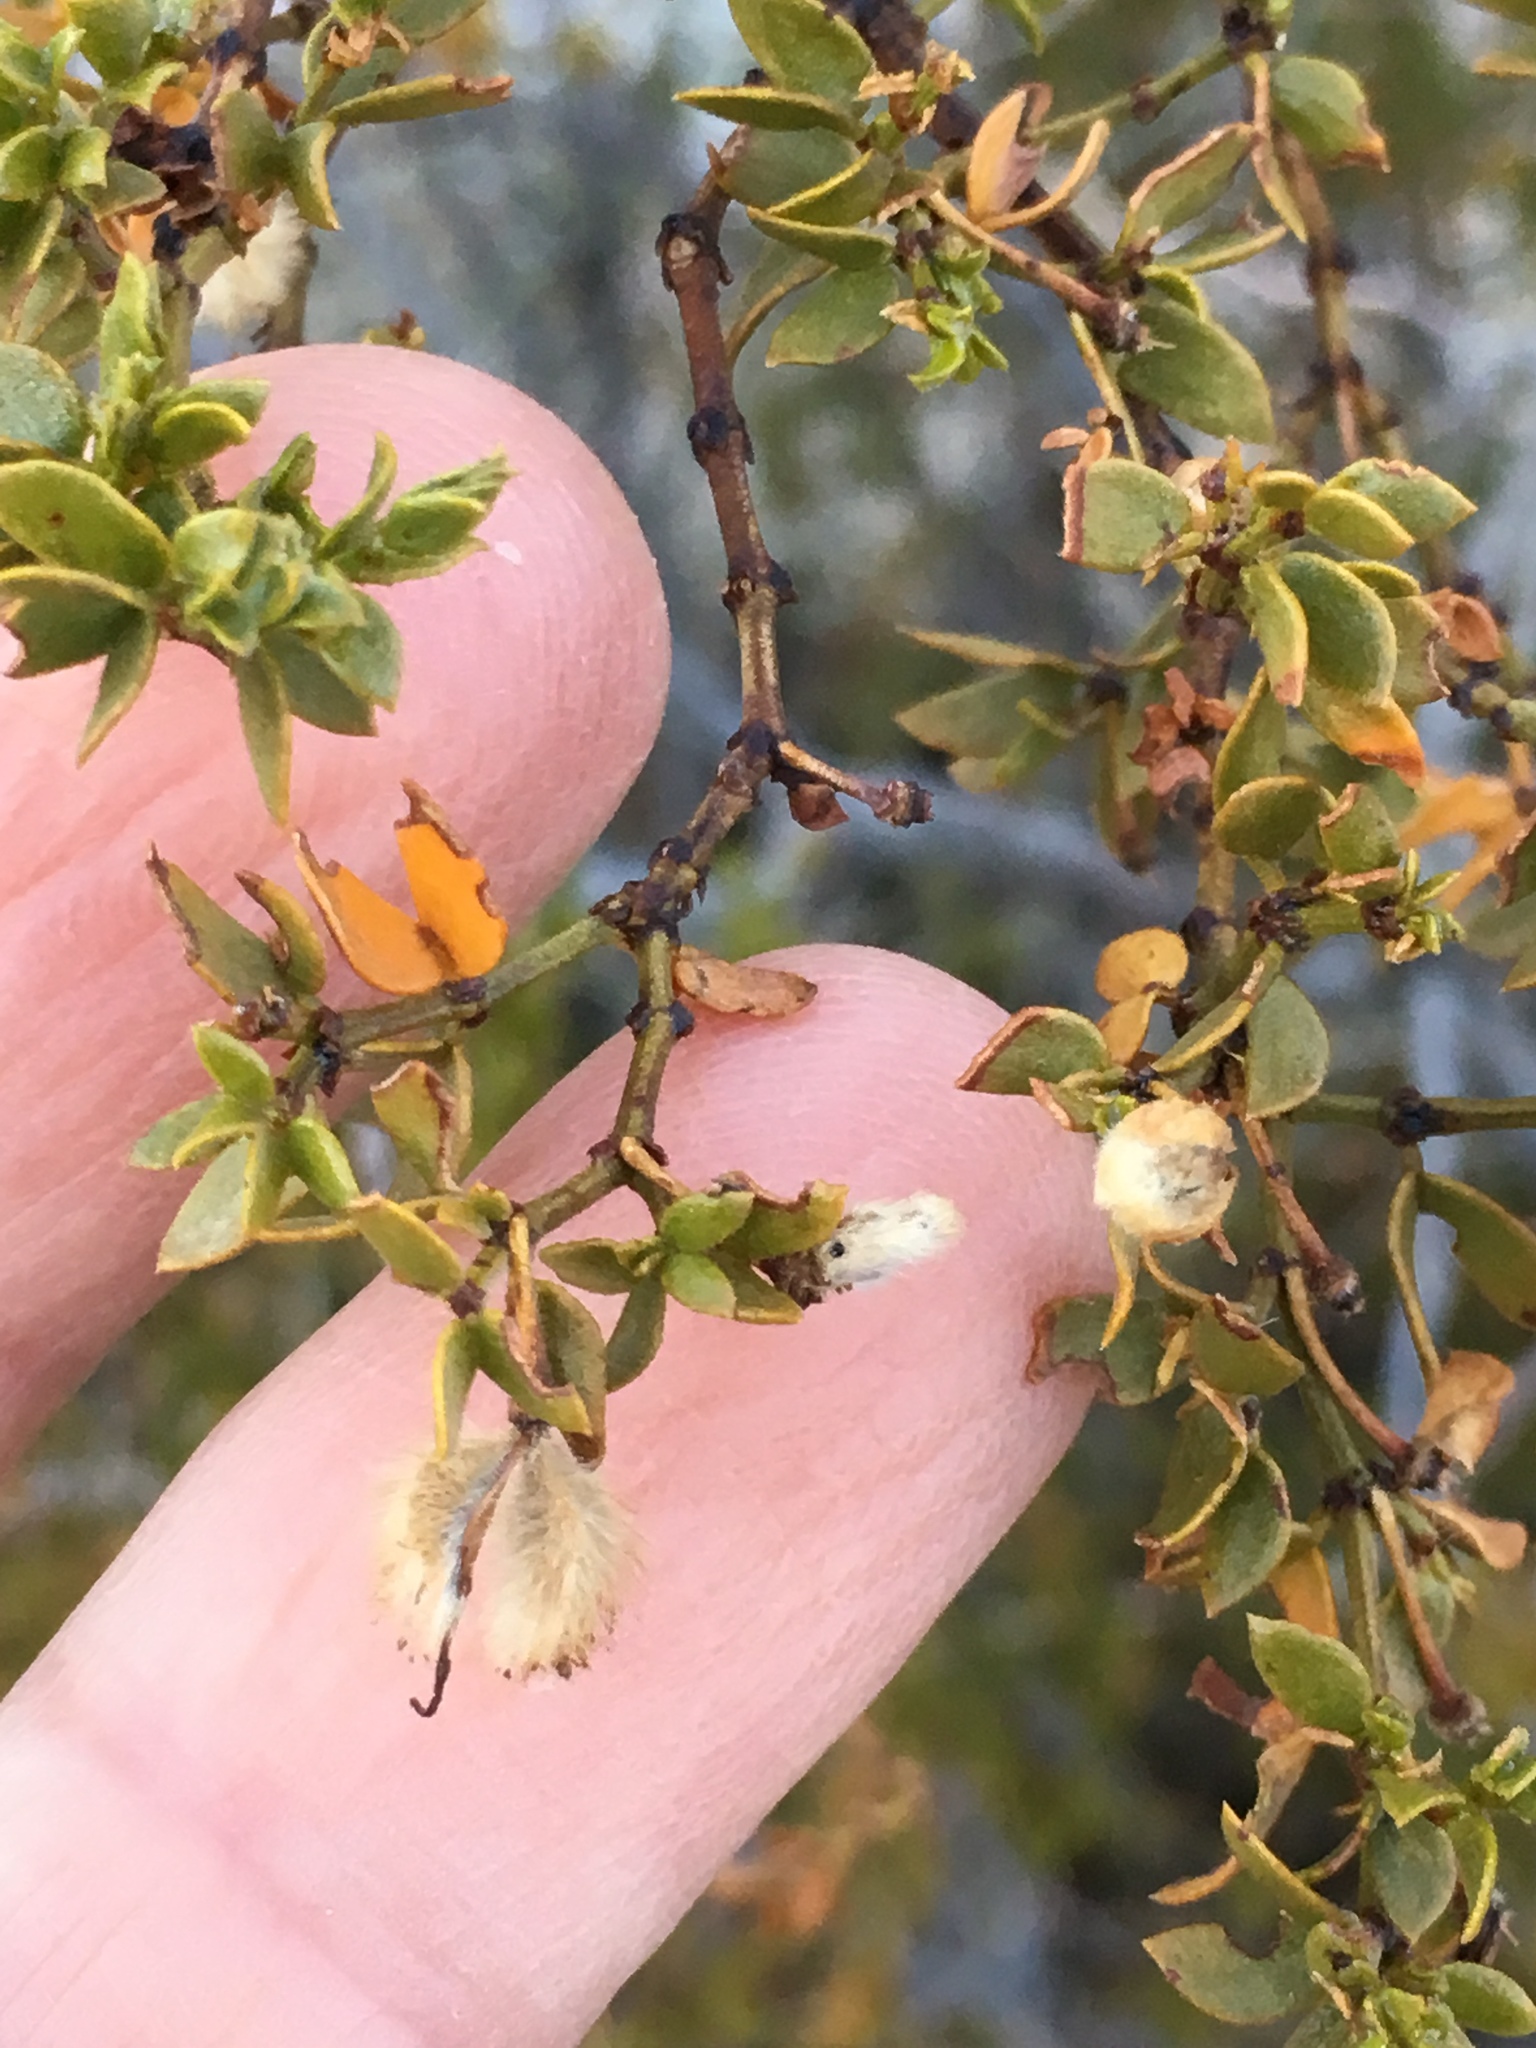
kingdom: Plantae
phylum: Tracheophyta
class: Magnoliopsida
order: Zygophyllales
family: Zygophyllaceae
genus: Larrea
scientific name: Larrea tridentata
